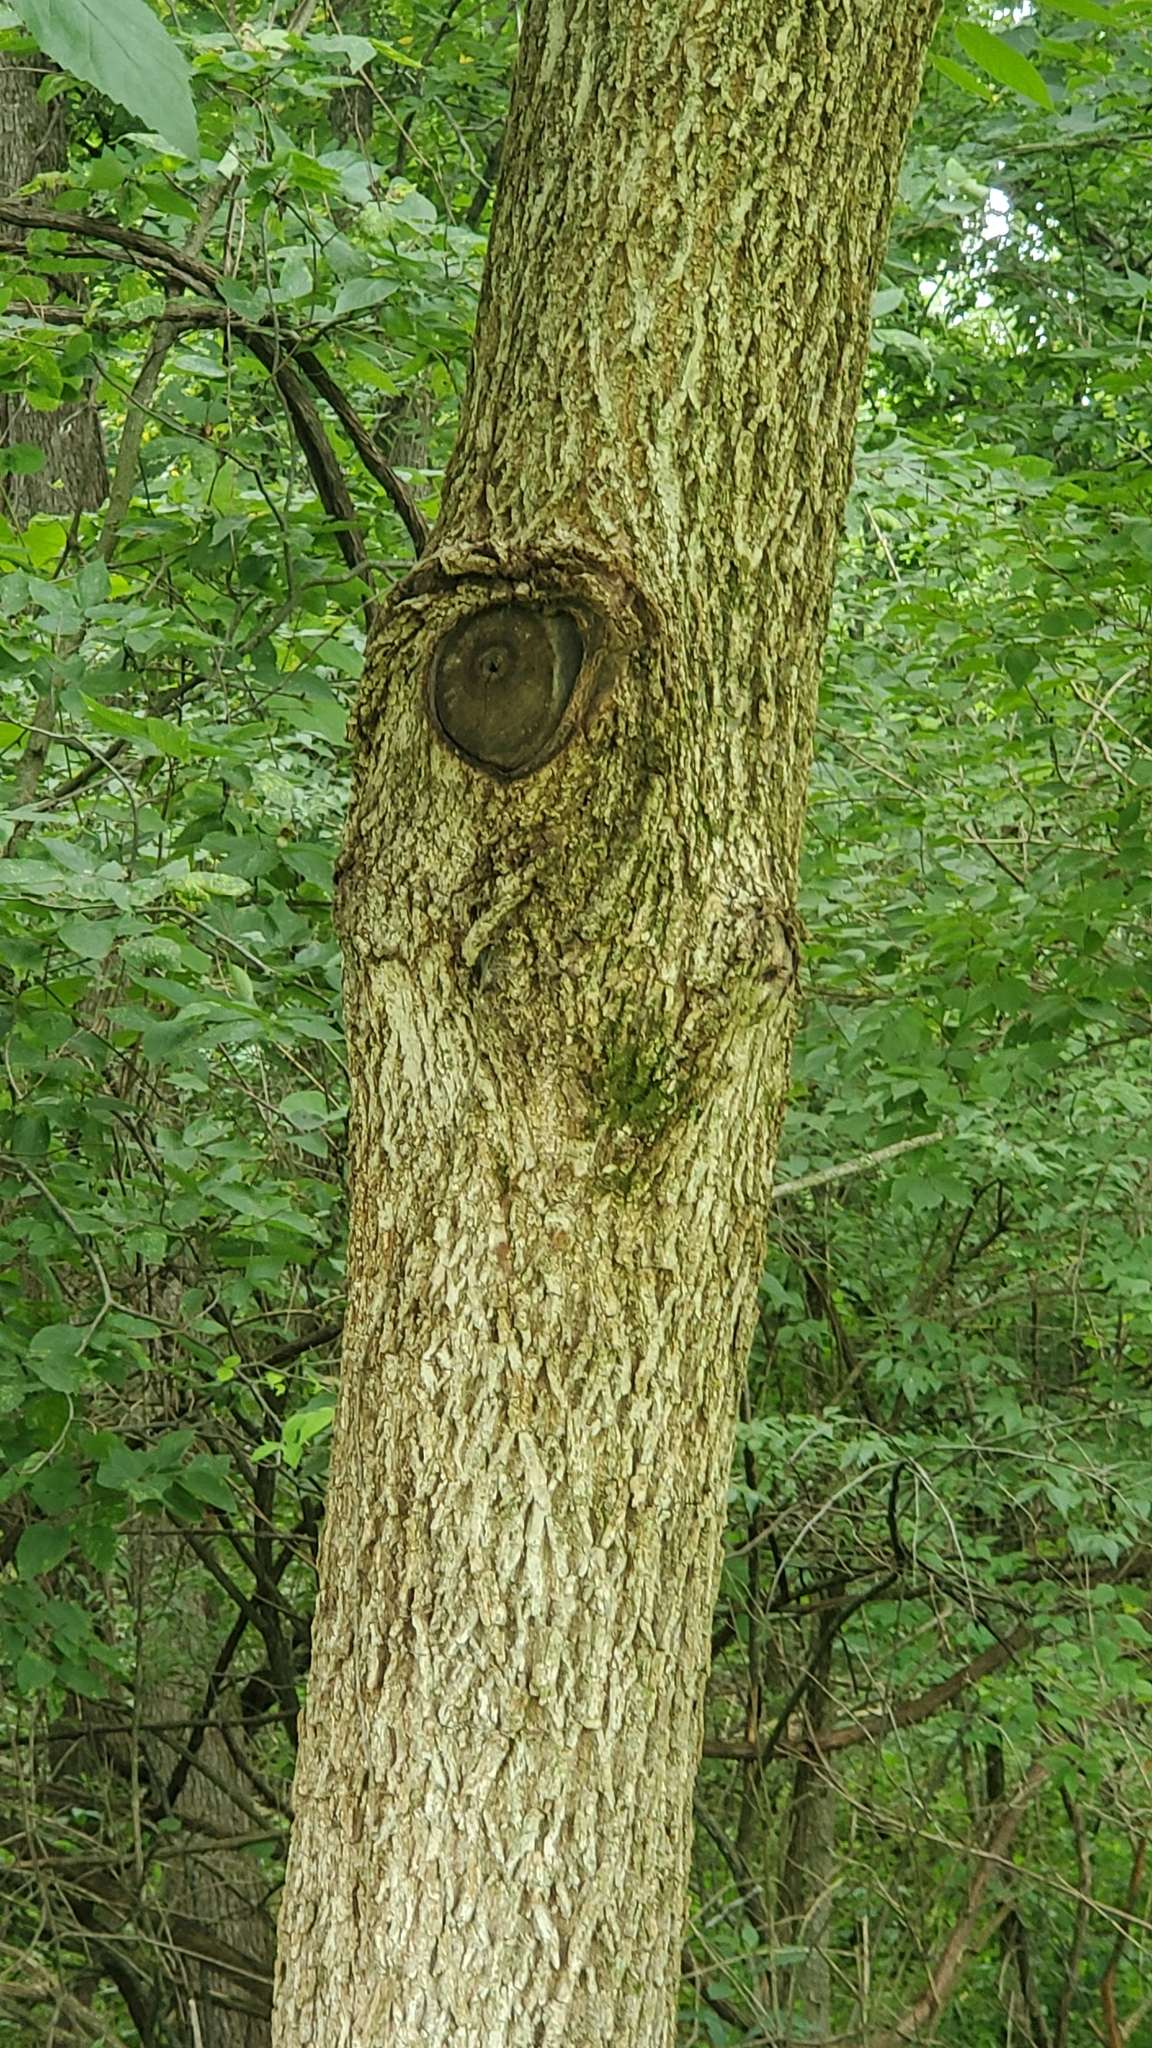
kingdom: Plantae
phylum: Tracheophyta
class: Magnoliopsida
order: Fagales
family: Juglandaceae
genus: Juglans
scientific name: Juglans nigra
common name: Black walnut
